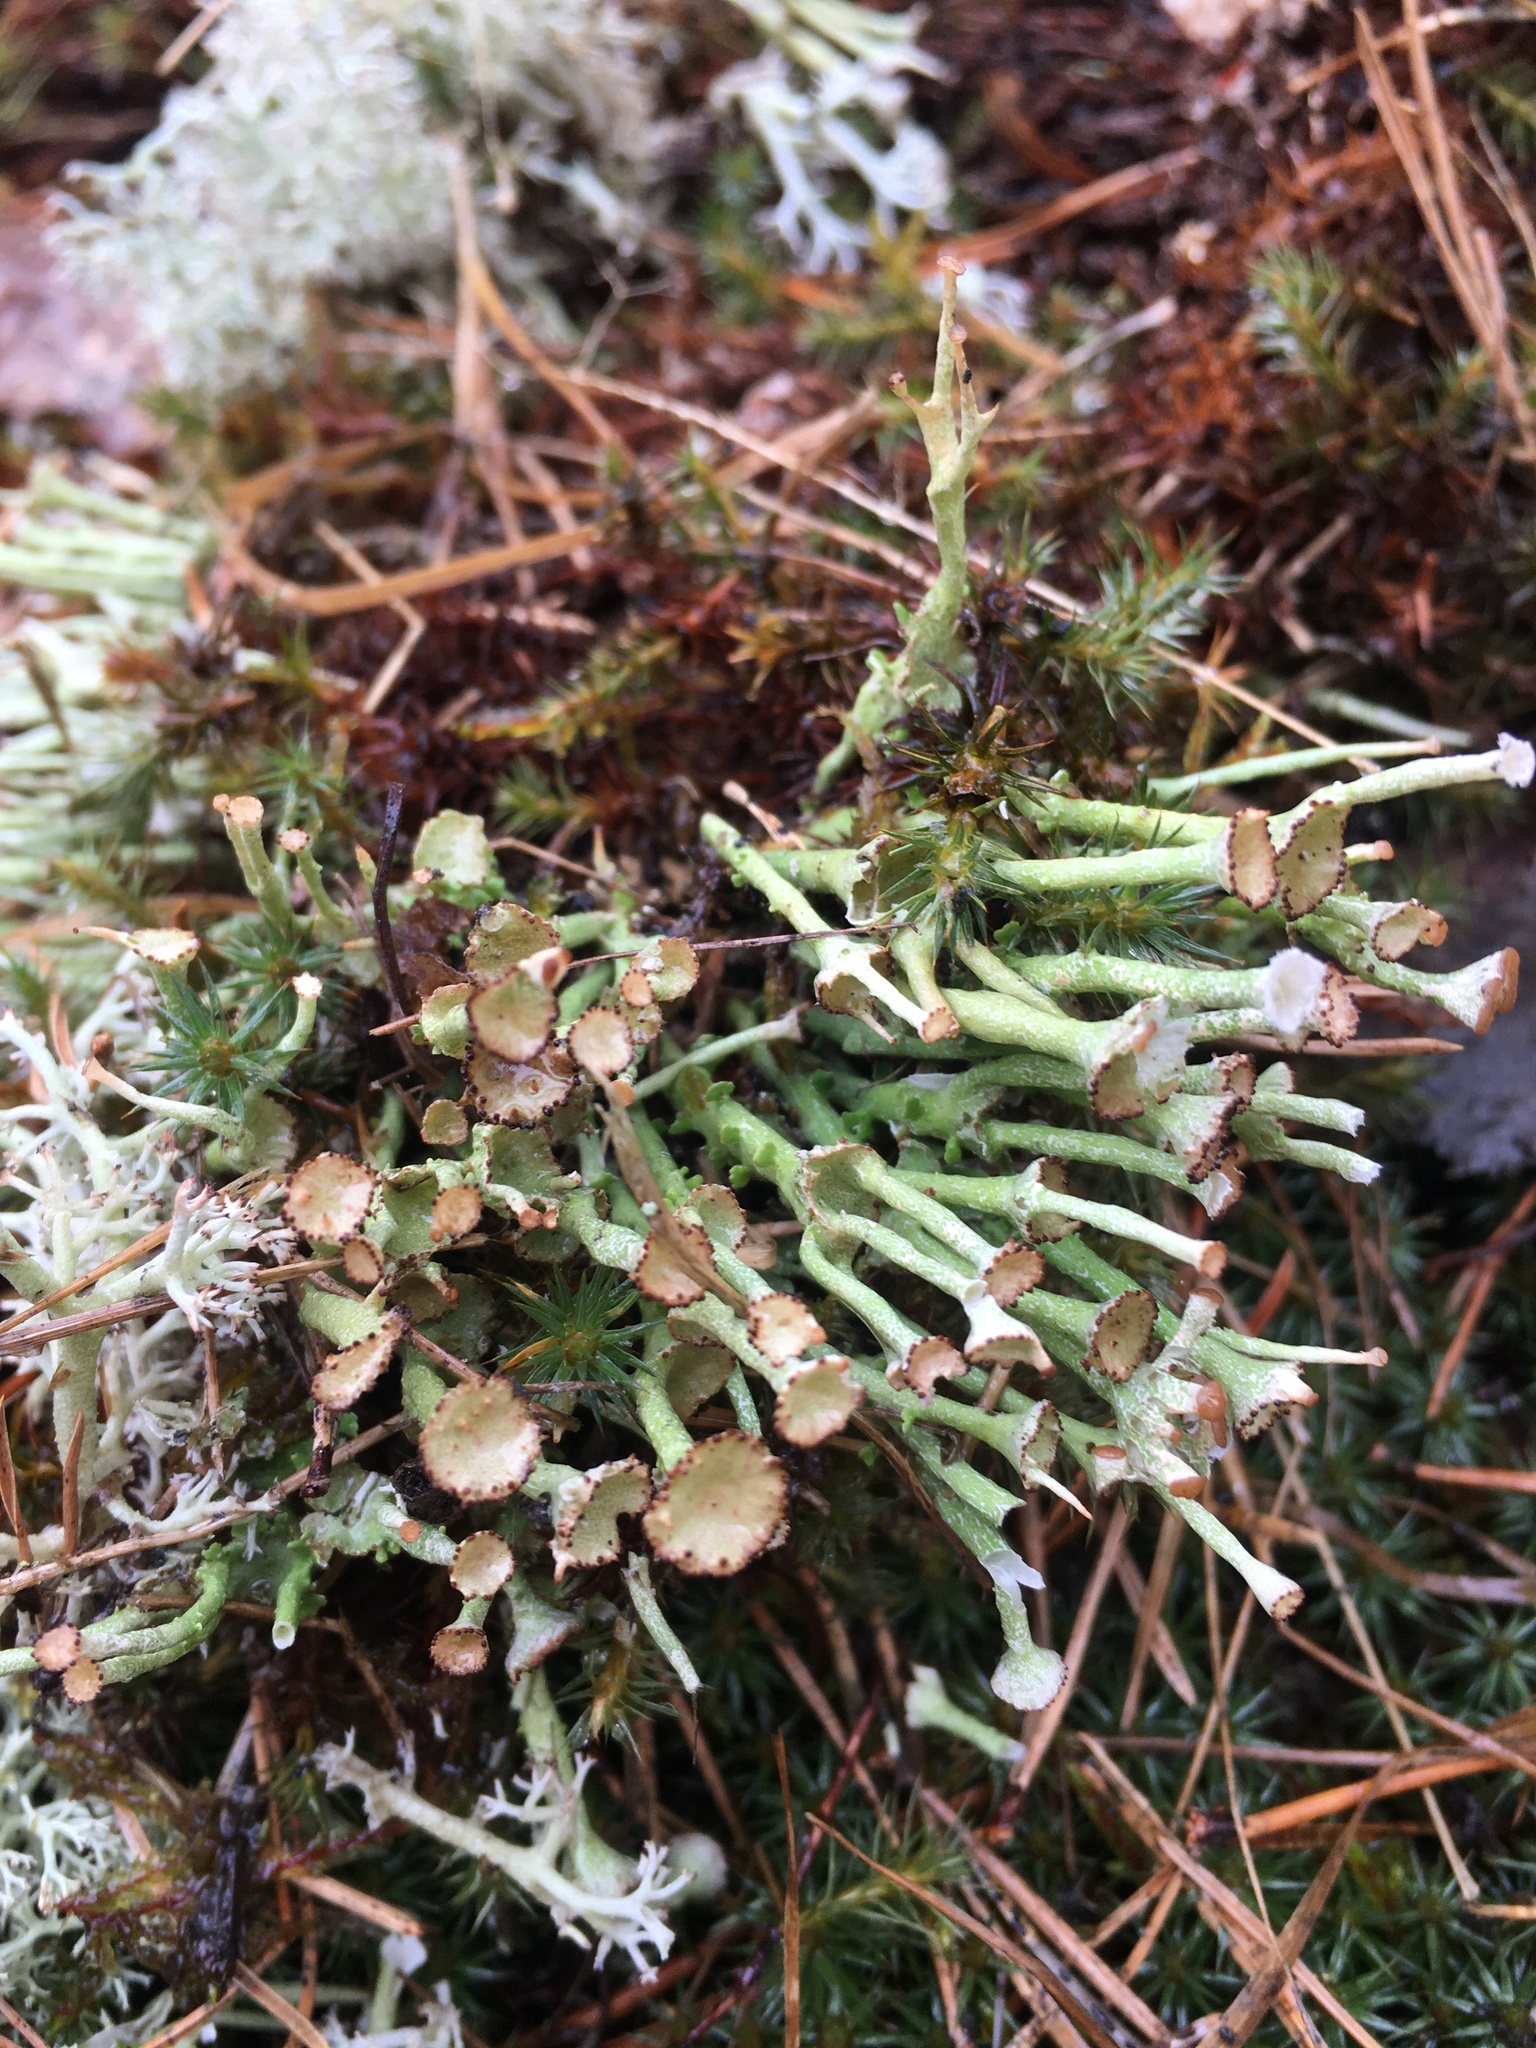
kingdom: Fungi
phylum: Ascomycota
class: Lecanoromycetes
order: Lecanorales
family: Cladoniaceae
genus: Cladonia
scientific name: Cladonia gracilis
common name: Smooth clad lichen
